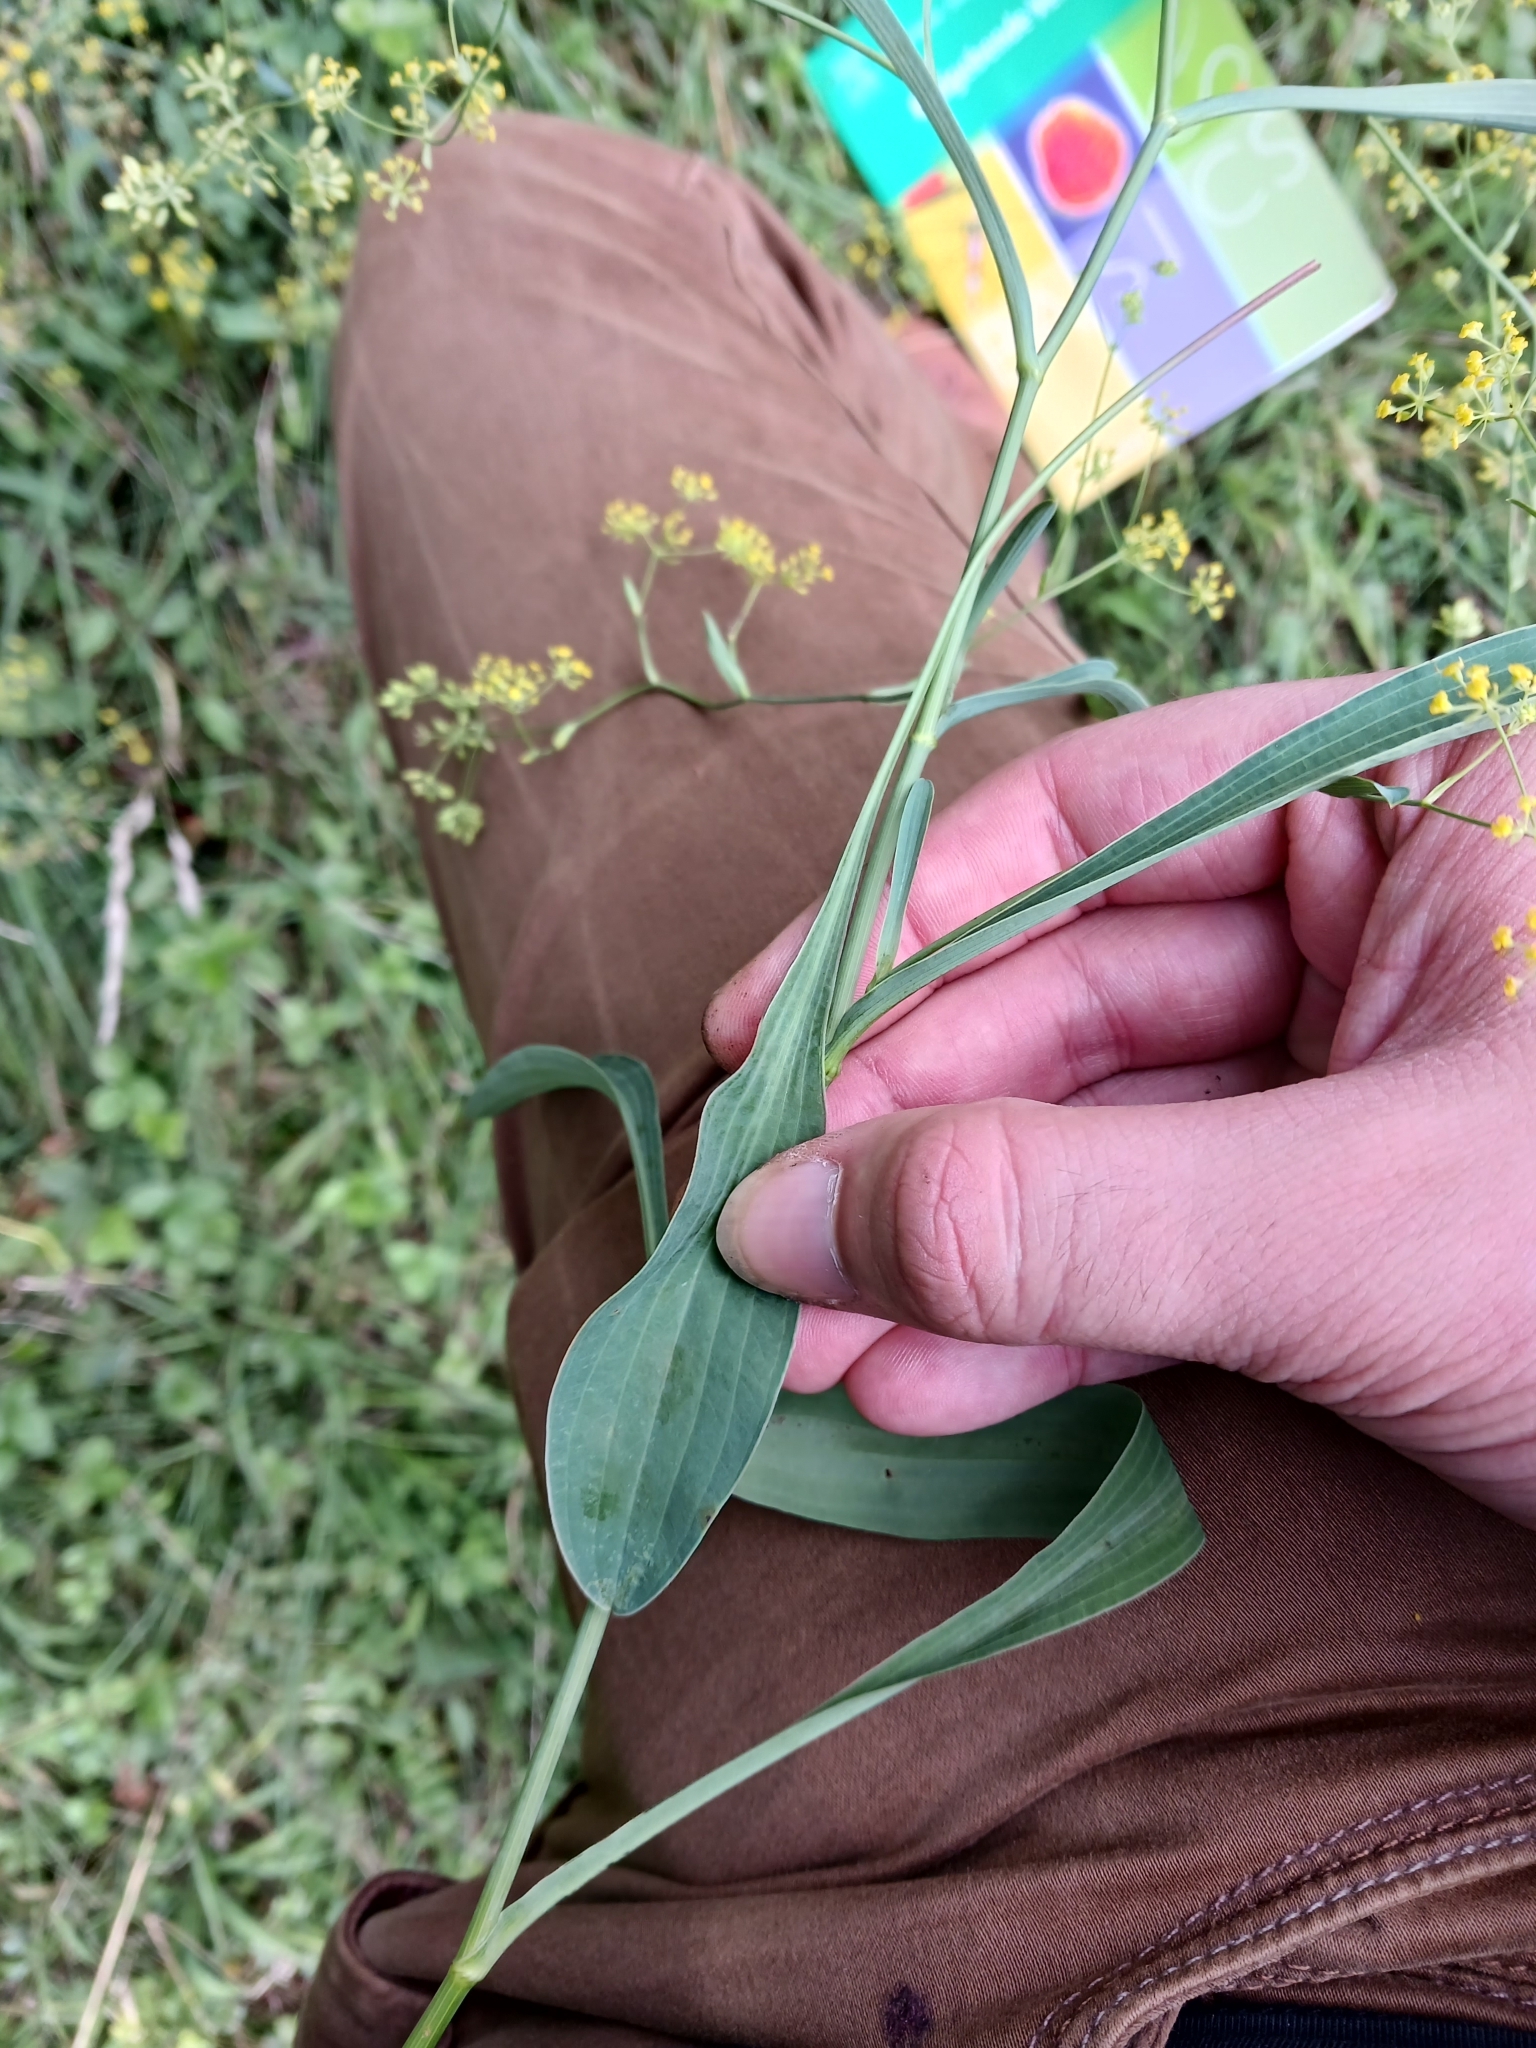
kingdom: Plantae
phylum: Tracheophyta
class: Magnoliopsida
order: Apiales
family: Apiaceae
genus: Bupleurum
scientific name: Bupleurum falcatum
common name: Sickle-leaved hare's-ear
